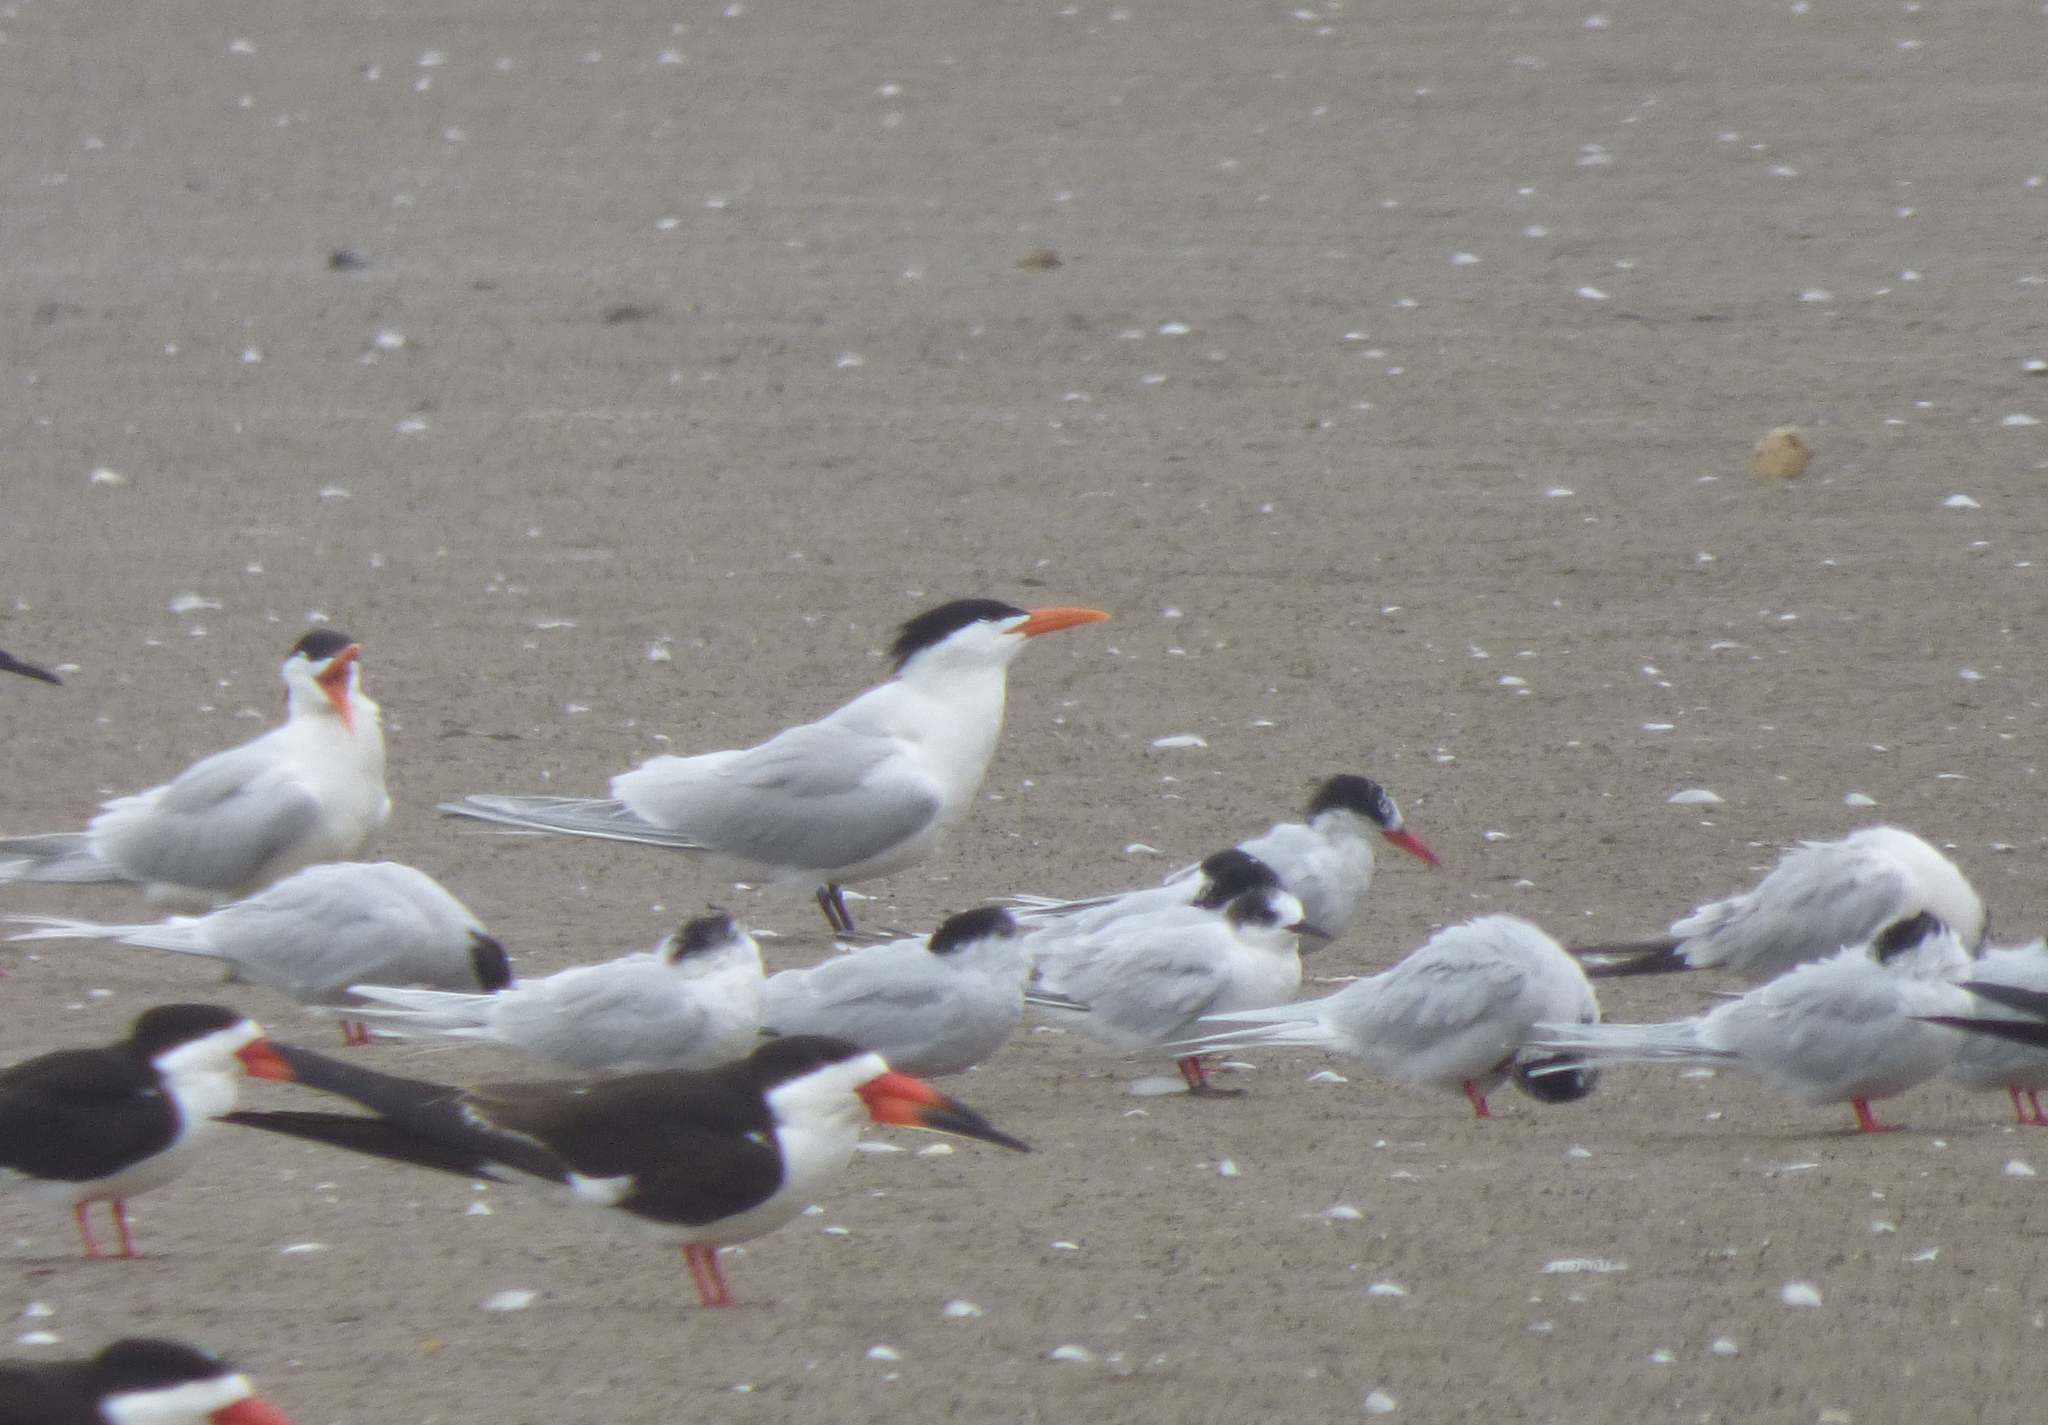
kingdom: Animalia
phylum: Chordata
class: Aves
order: Charadriiformes
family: Laridae
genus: Thalasseus
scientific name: Thalasseus maximus
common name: Royal tern
